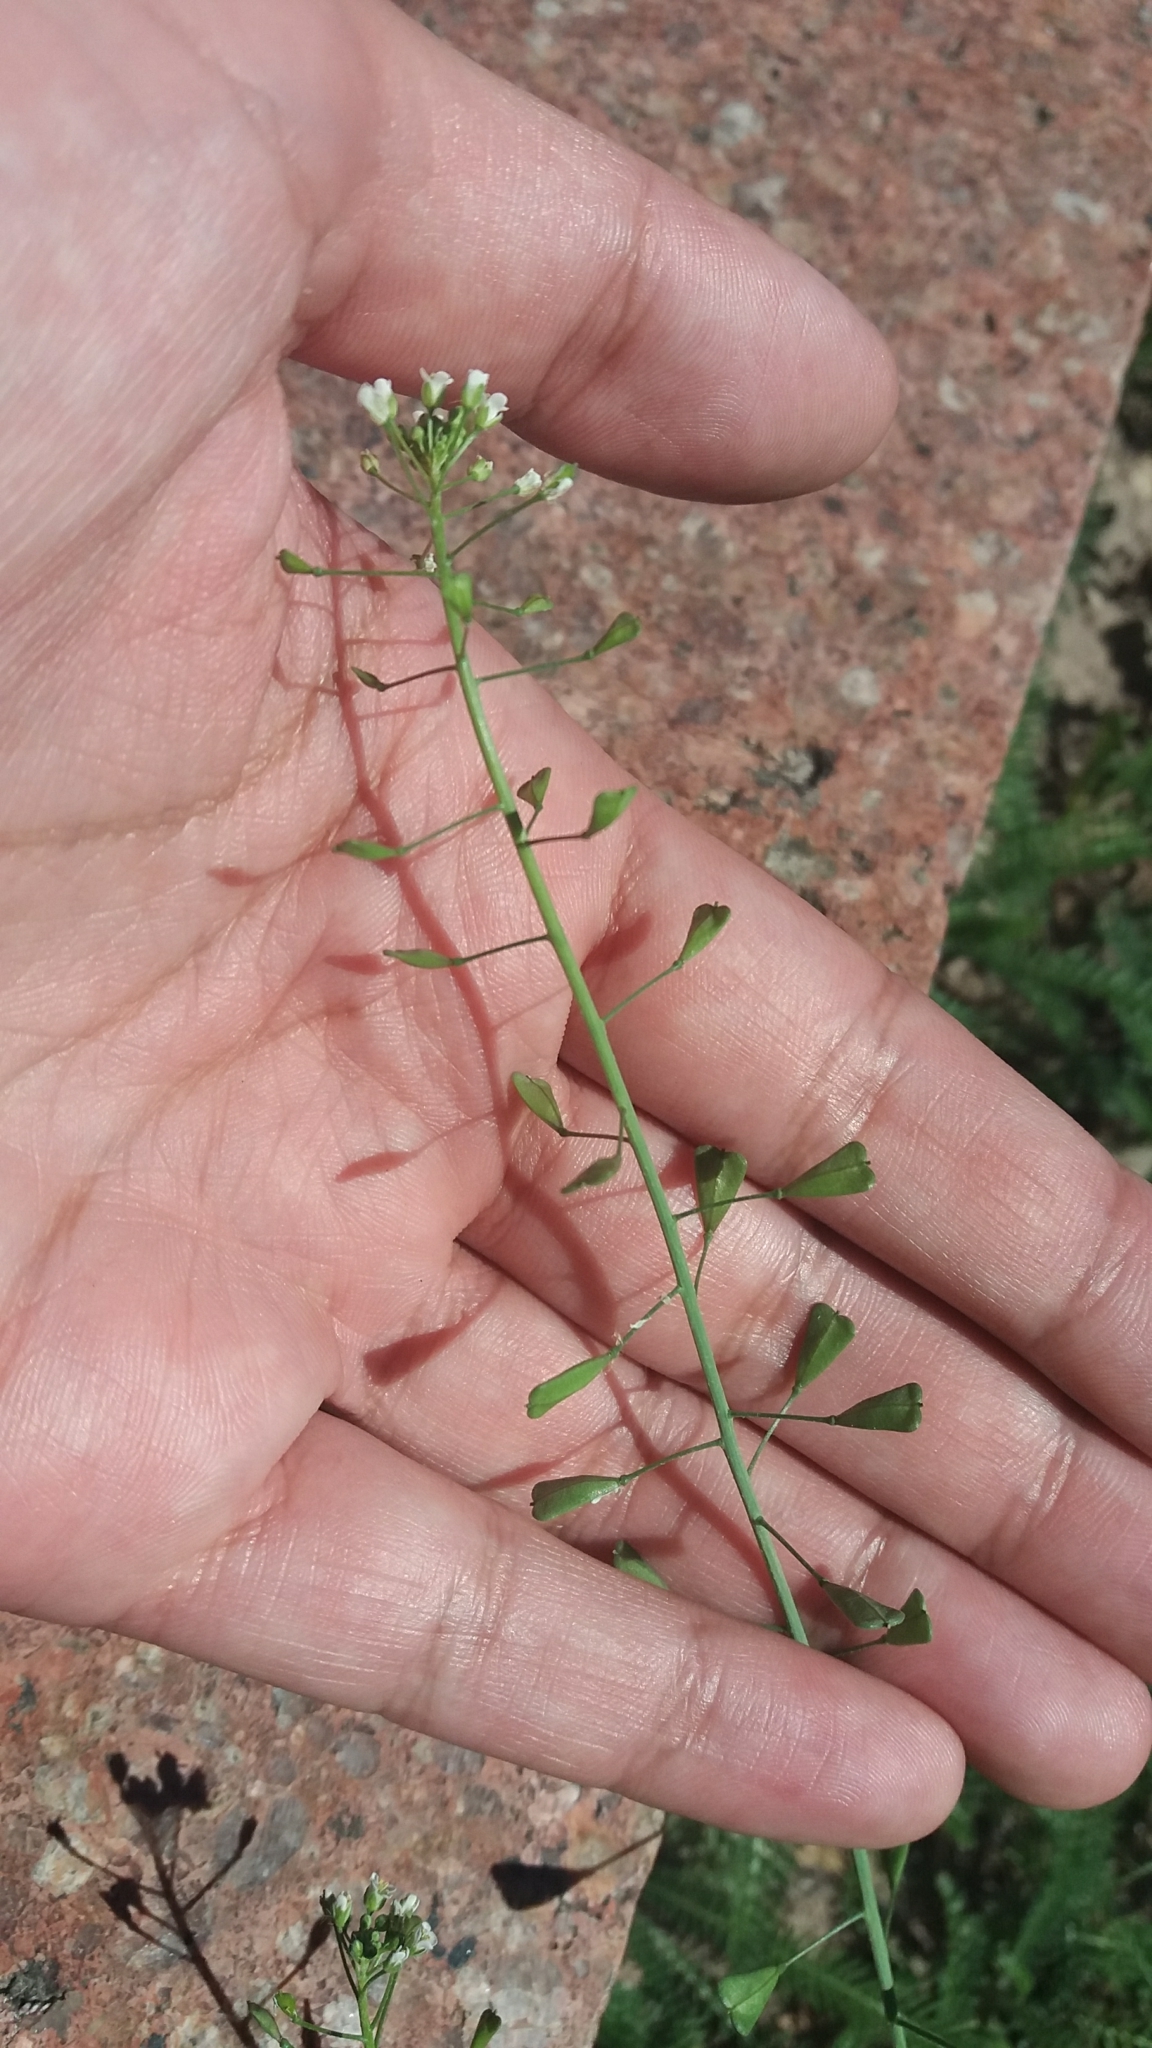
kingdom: Plantae
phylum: Tracheophyta
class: Magnoliopsida
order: Brassicales
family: Brassicaceae
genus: Capsella
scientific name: Capsella bursa-pastoris
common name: Shepherd's purse
